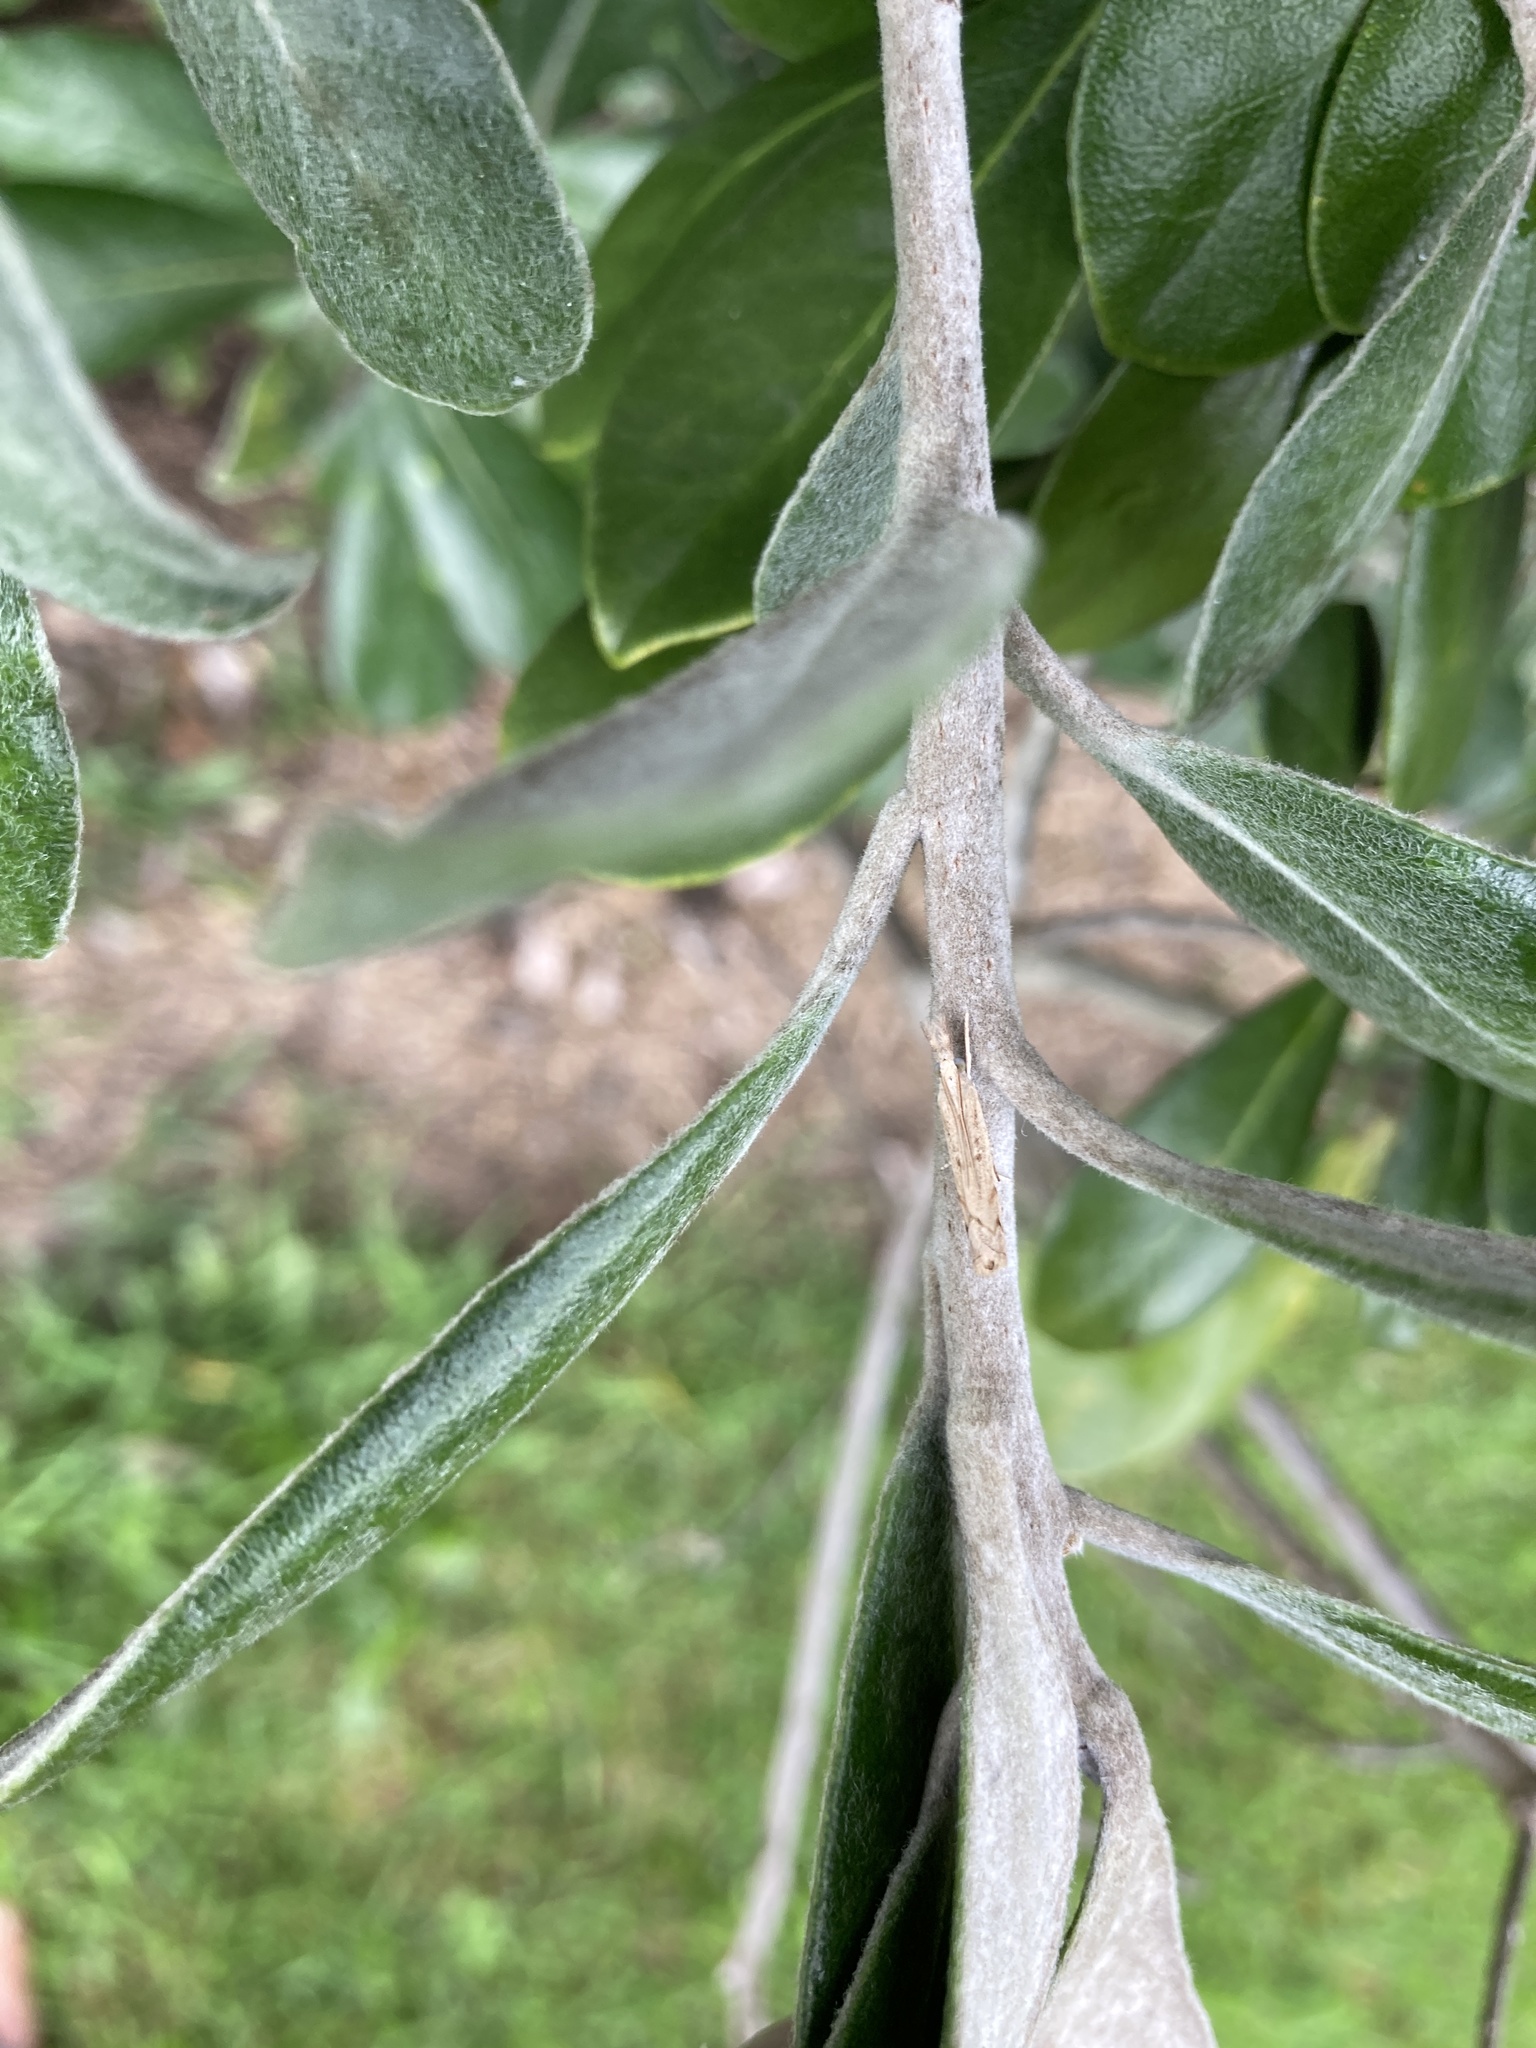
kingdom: Animalia
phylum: Arthropoda
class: Insecta
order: Lepidoptera
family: Crambidae
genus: Culladia
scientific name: Culladia cuneiferellus
